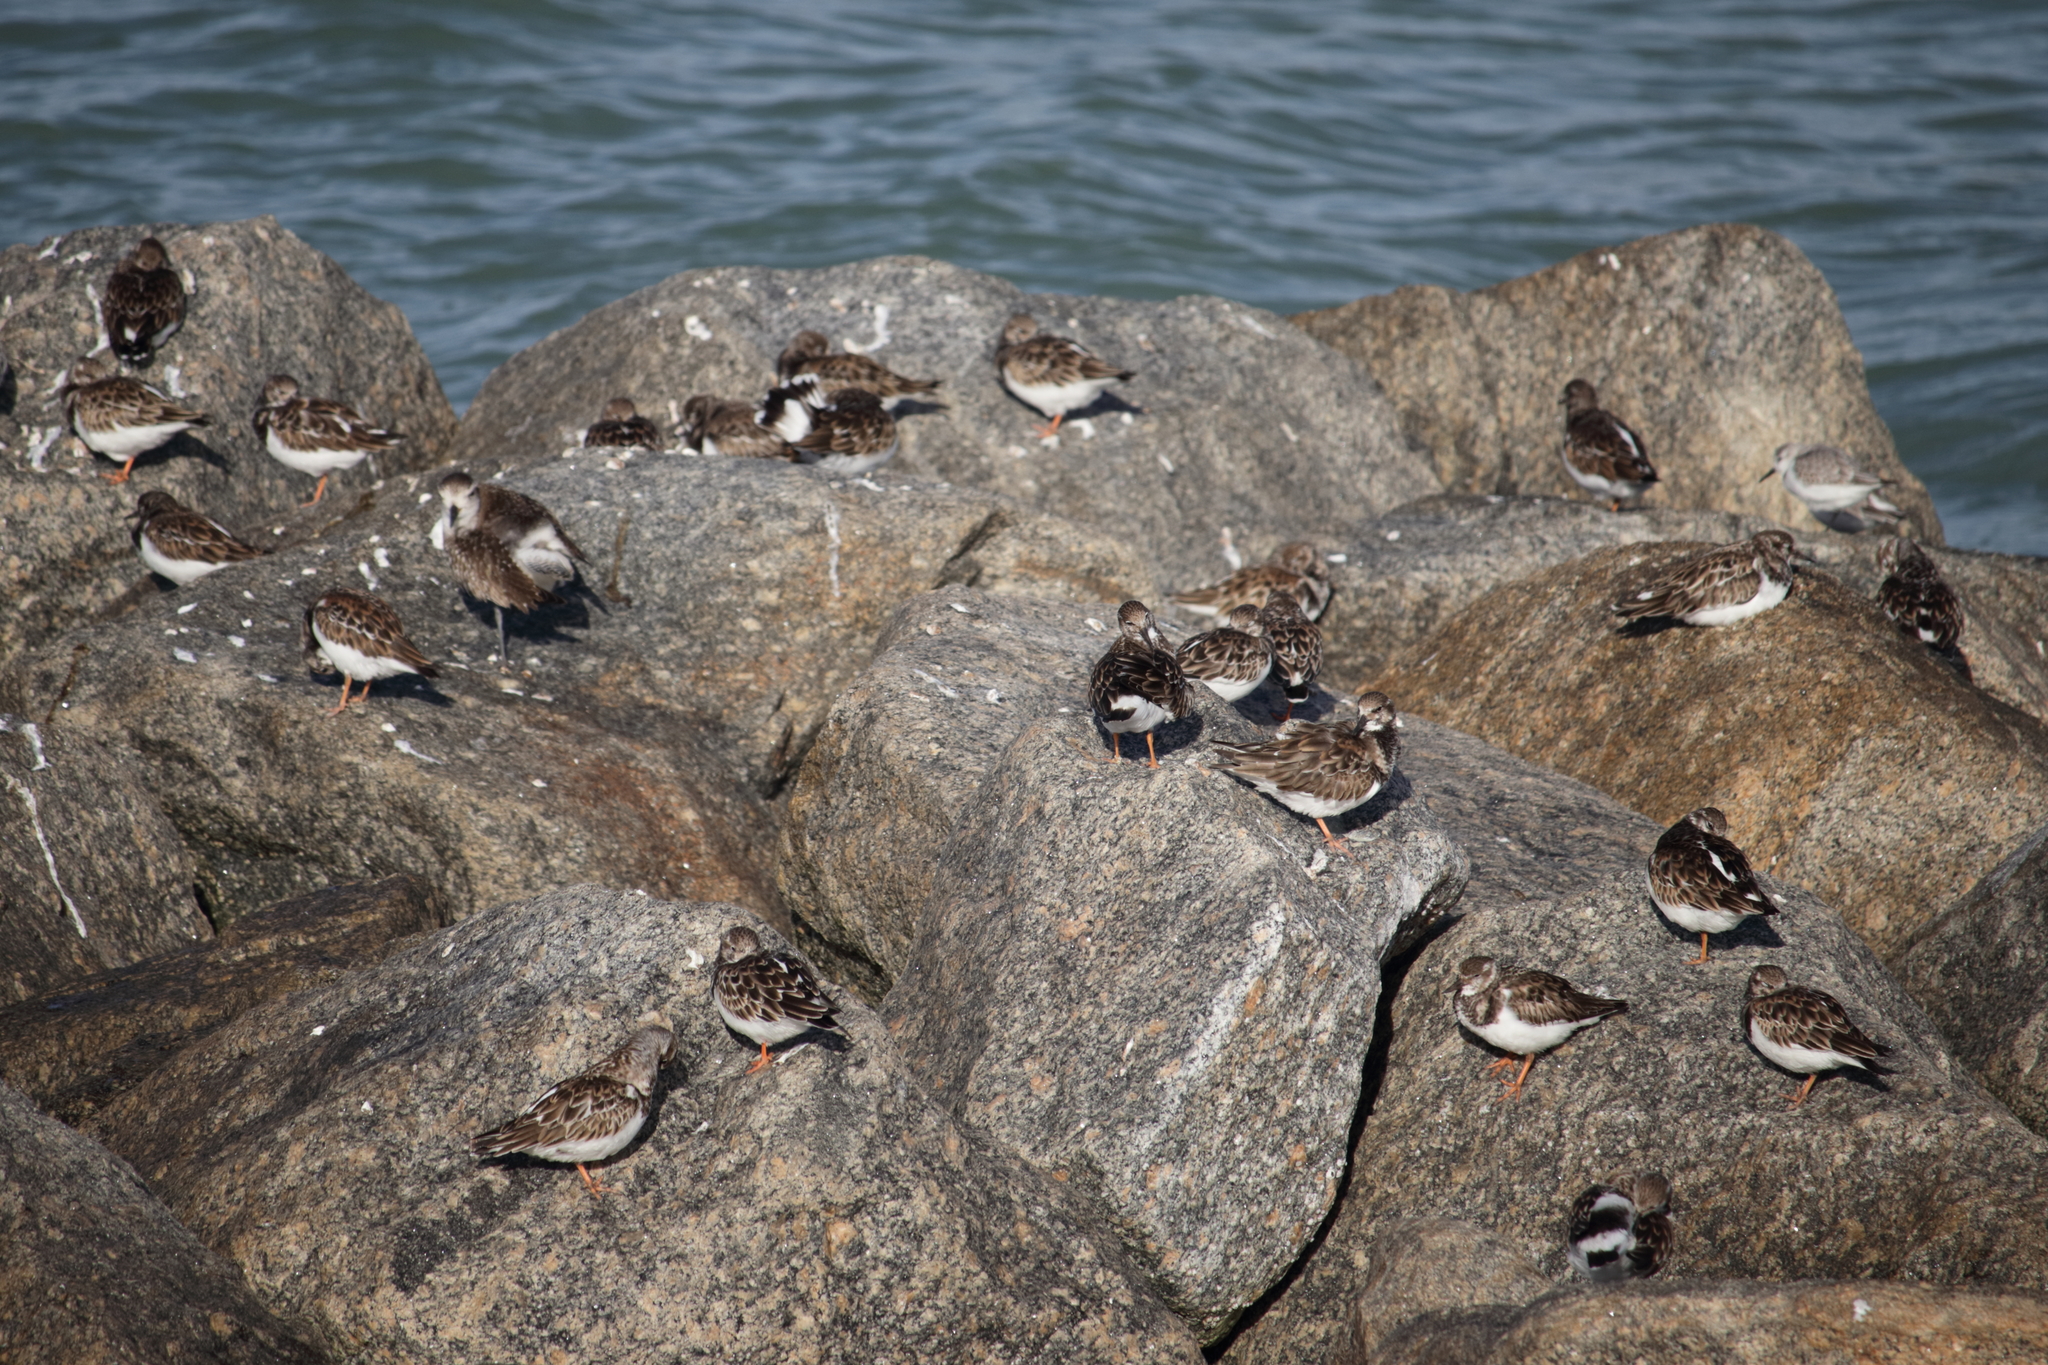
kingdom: Animalia
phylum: Chordata
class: Aves
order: Charadriiformes
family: Scolopacidae
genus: Arenaria
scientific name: Arenaria interpres
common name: Ruddy turnstone
